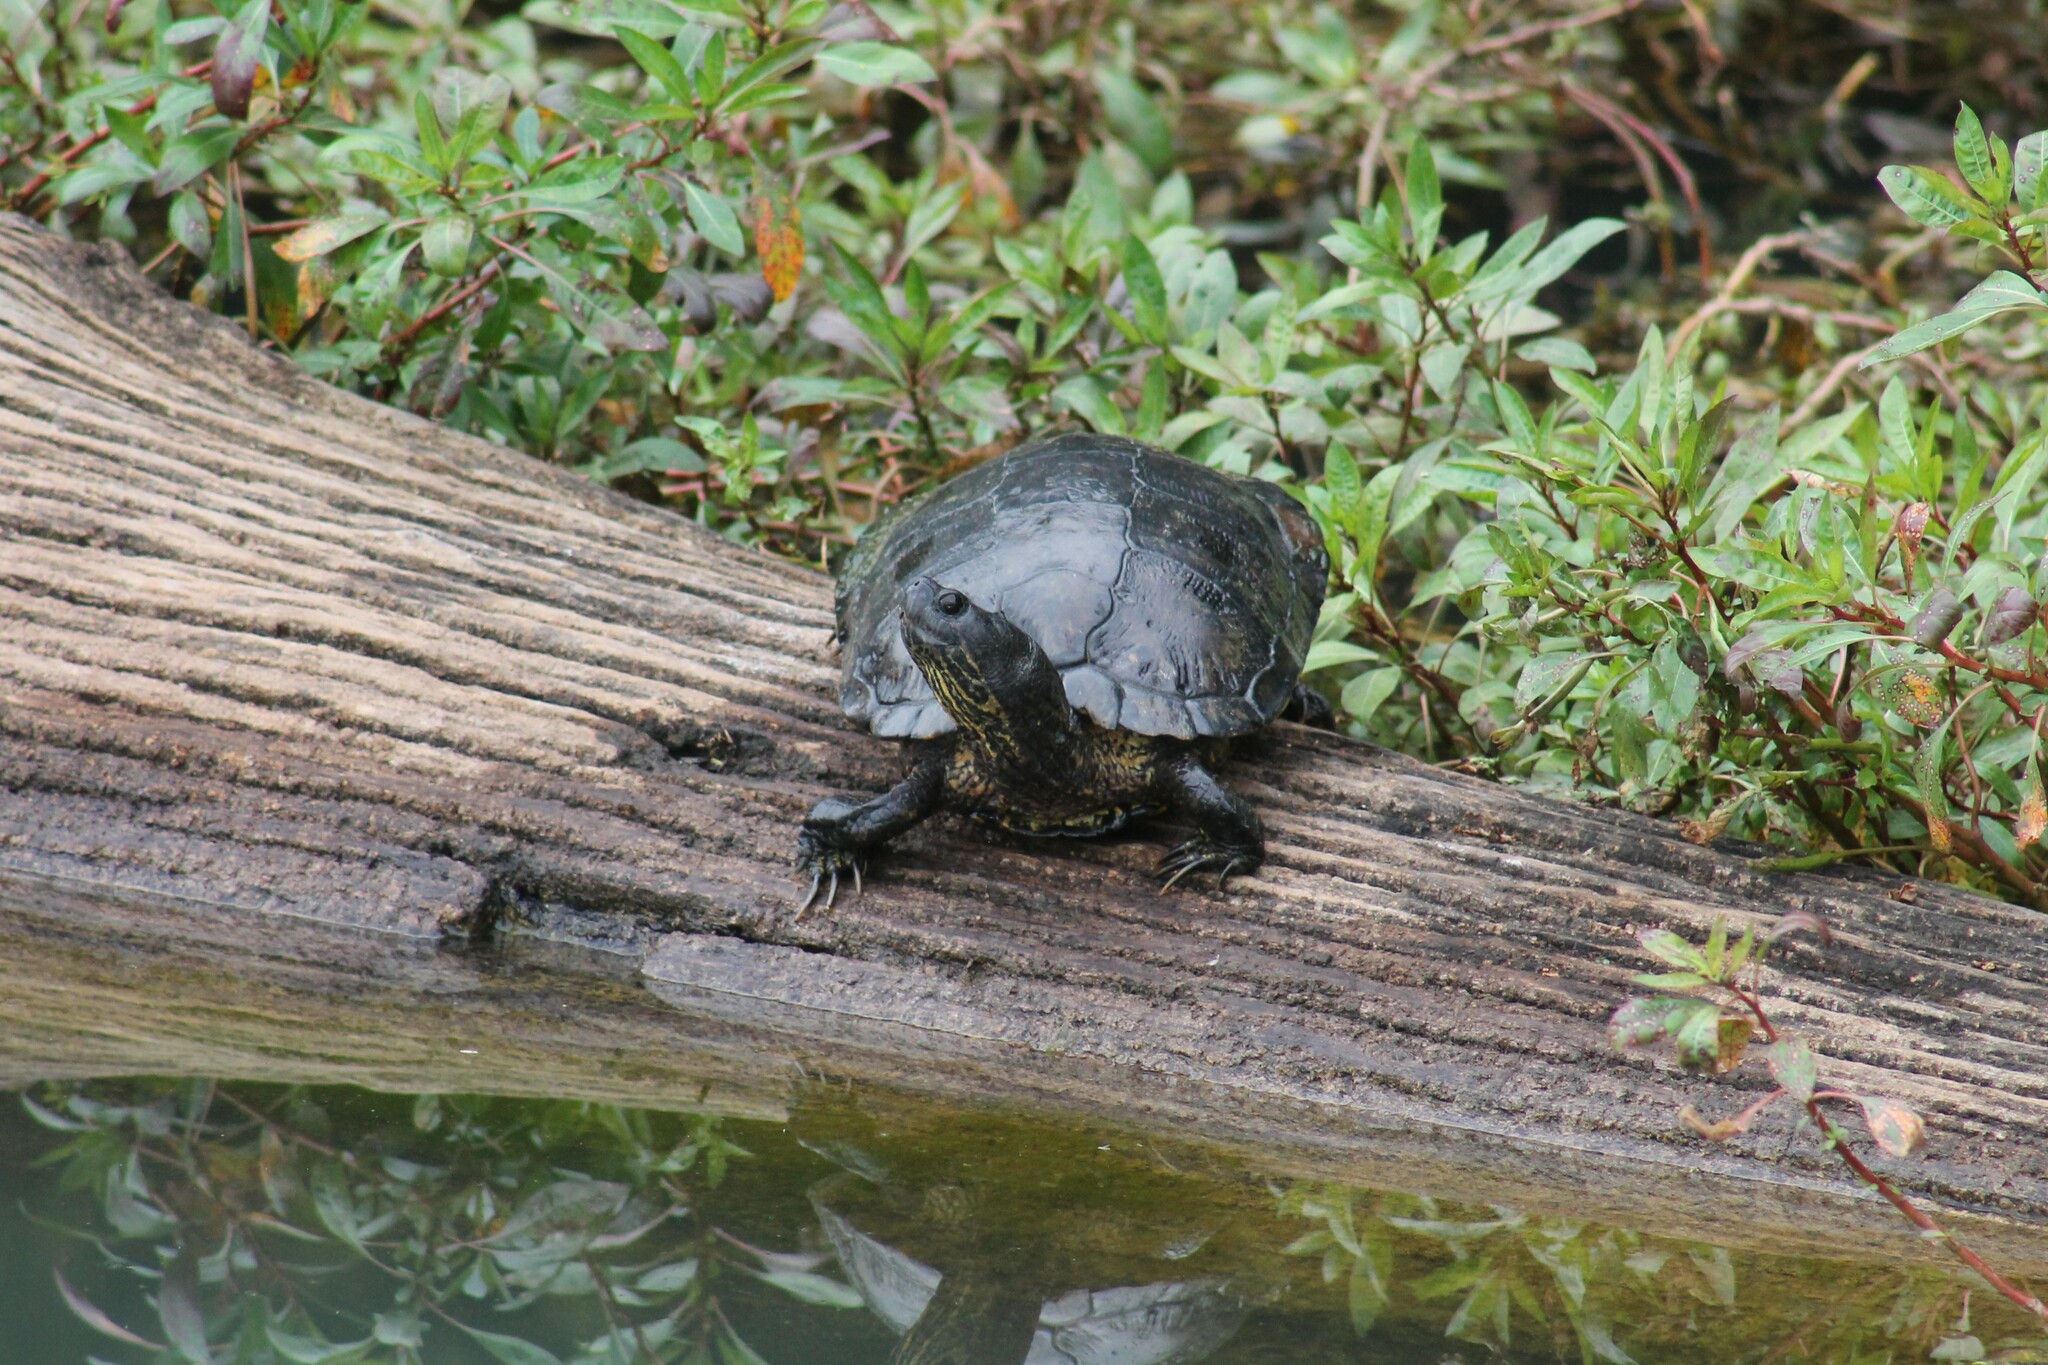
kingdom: Animalia
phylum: Chordata
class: Testudines
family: Emydidae
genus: Trachemys
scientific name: Trachemys scripta
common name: Slider
